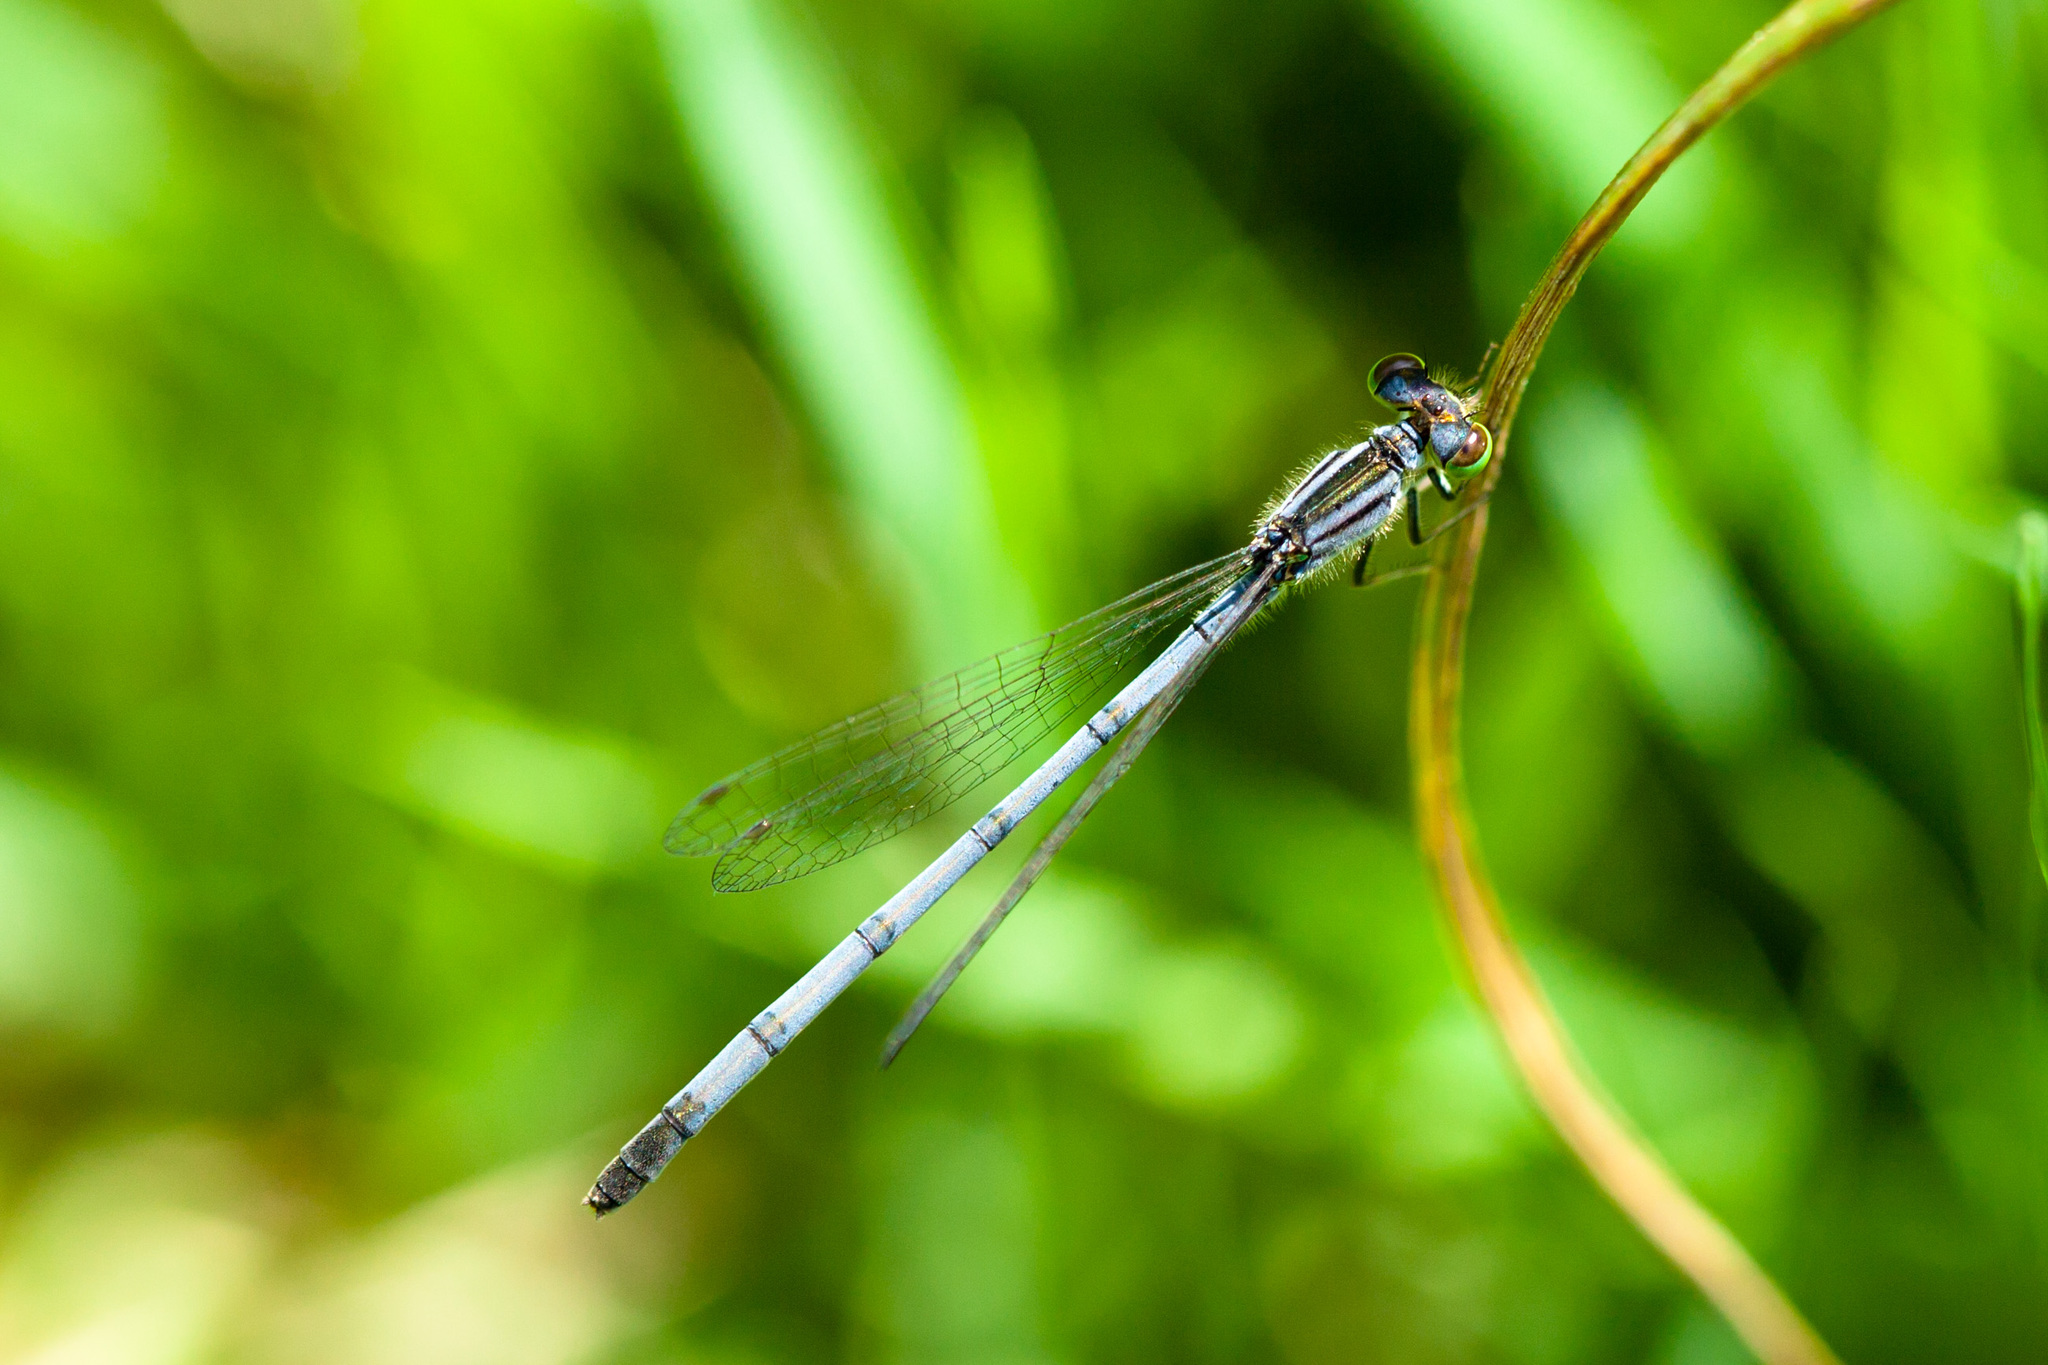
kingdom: Animalia
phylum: Arthropoda
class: Insecta
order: Odonata
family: Coenagrionidae
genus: Ischnura
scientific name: Ischnura verticalis
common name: Eastern forktail
